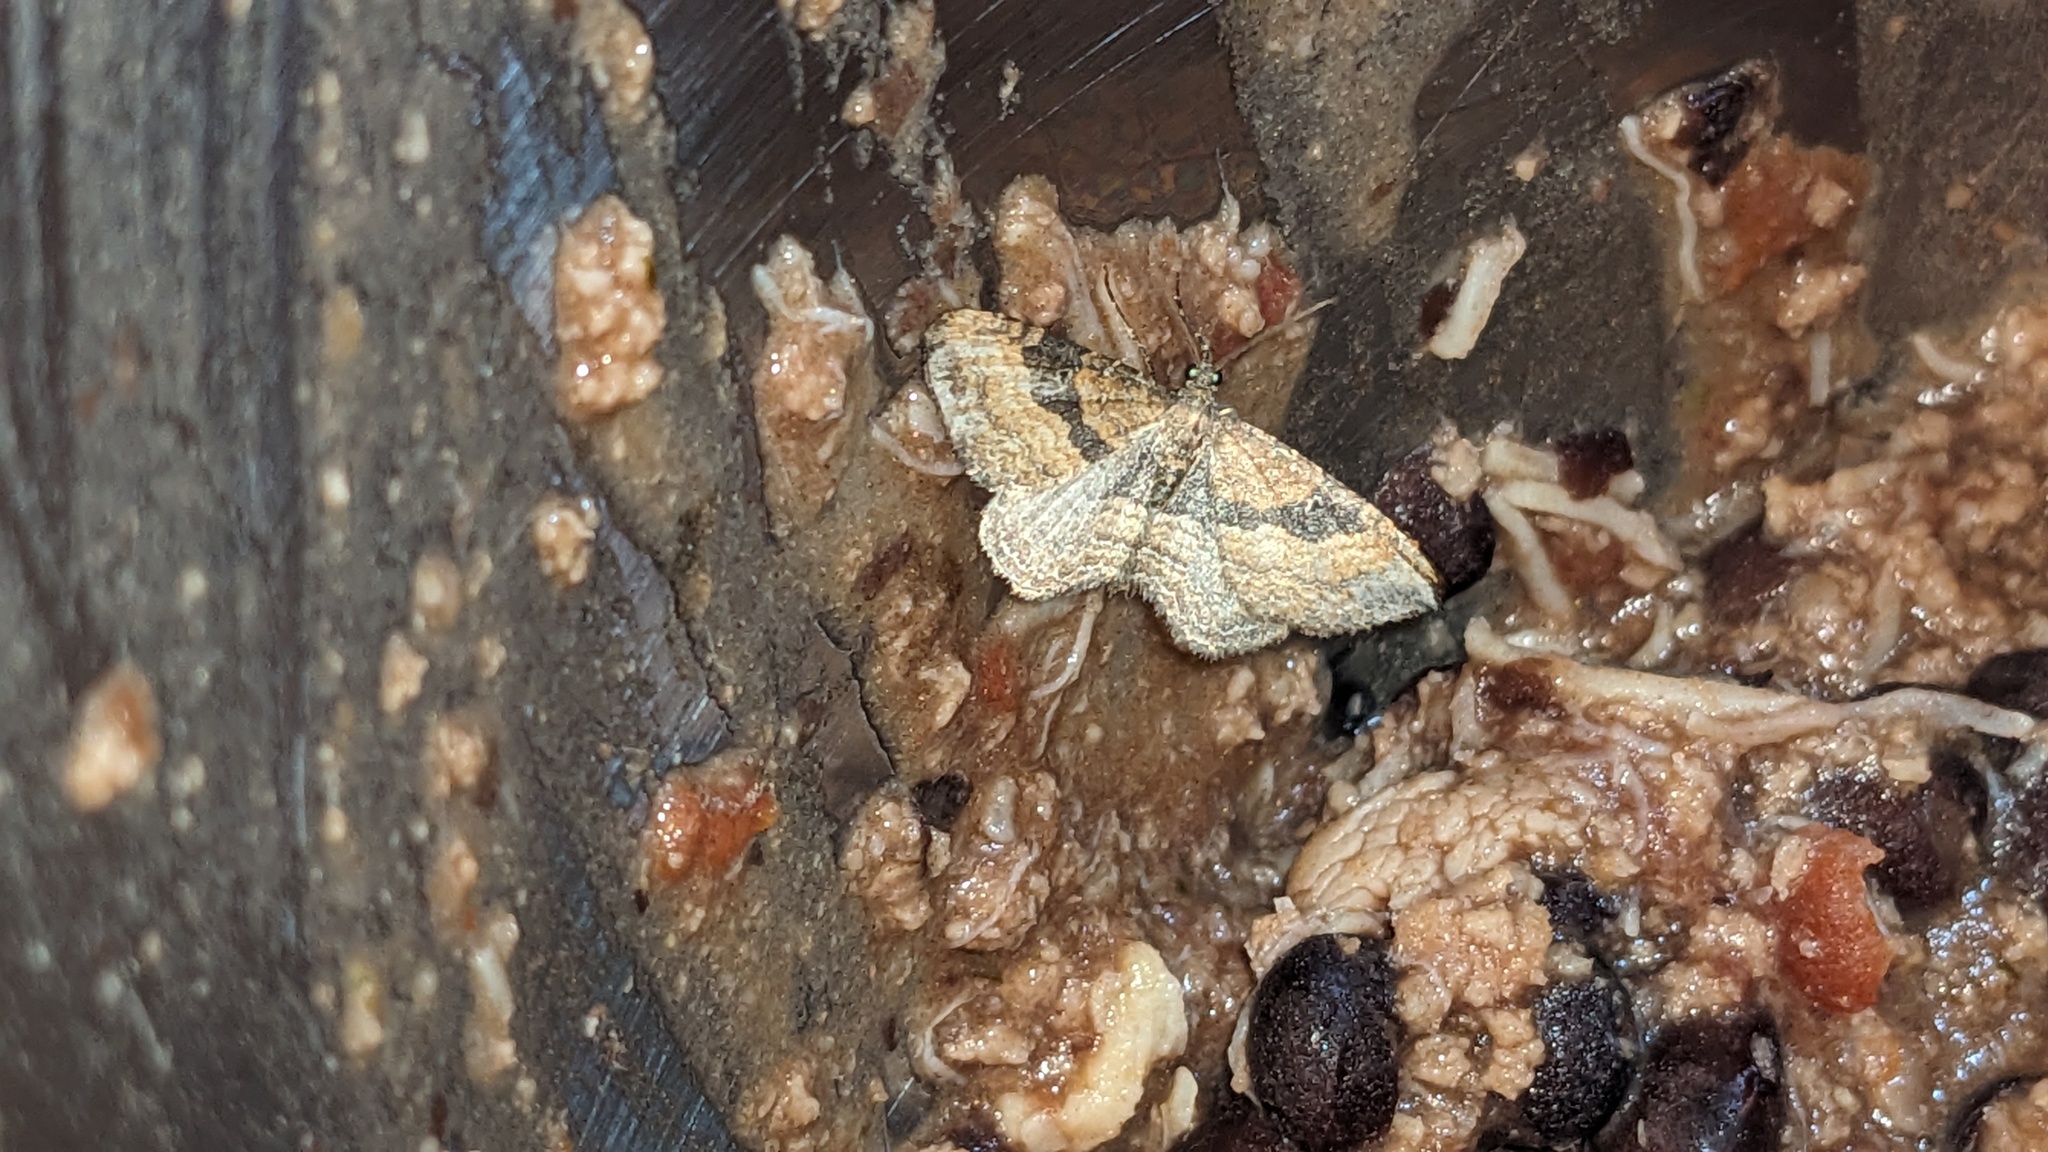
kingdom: Animalia
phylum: Arthropoda
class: Insecta
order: Lepidoptera
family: Geometridae
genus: Orthonama
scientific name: Orthonama obstipata
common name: The gem
